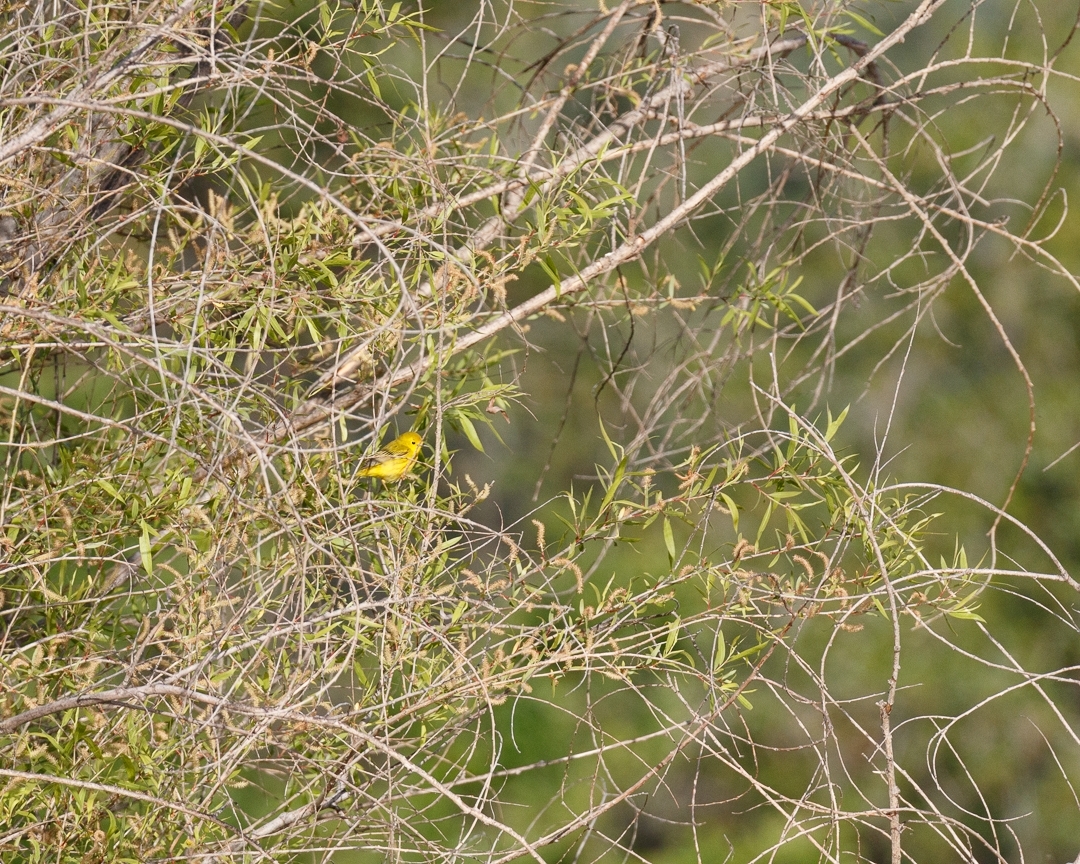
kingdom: Animalia
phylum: Chordata
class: Aves
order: Passeriformes
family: Parulidae
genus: Setophaga
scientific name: Setophaga petechia
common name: Yellow warbler
